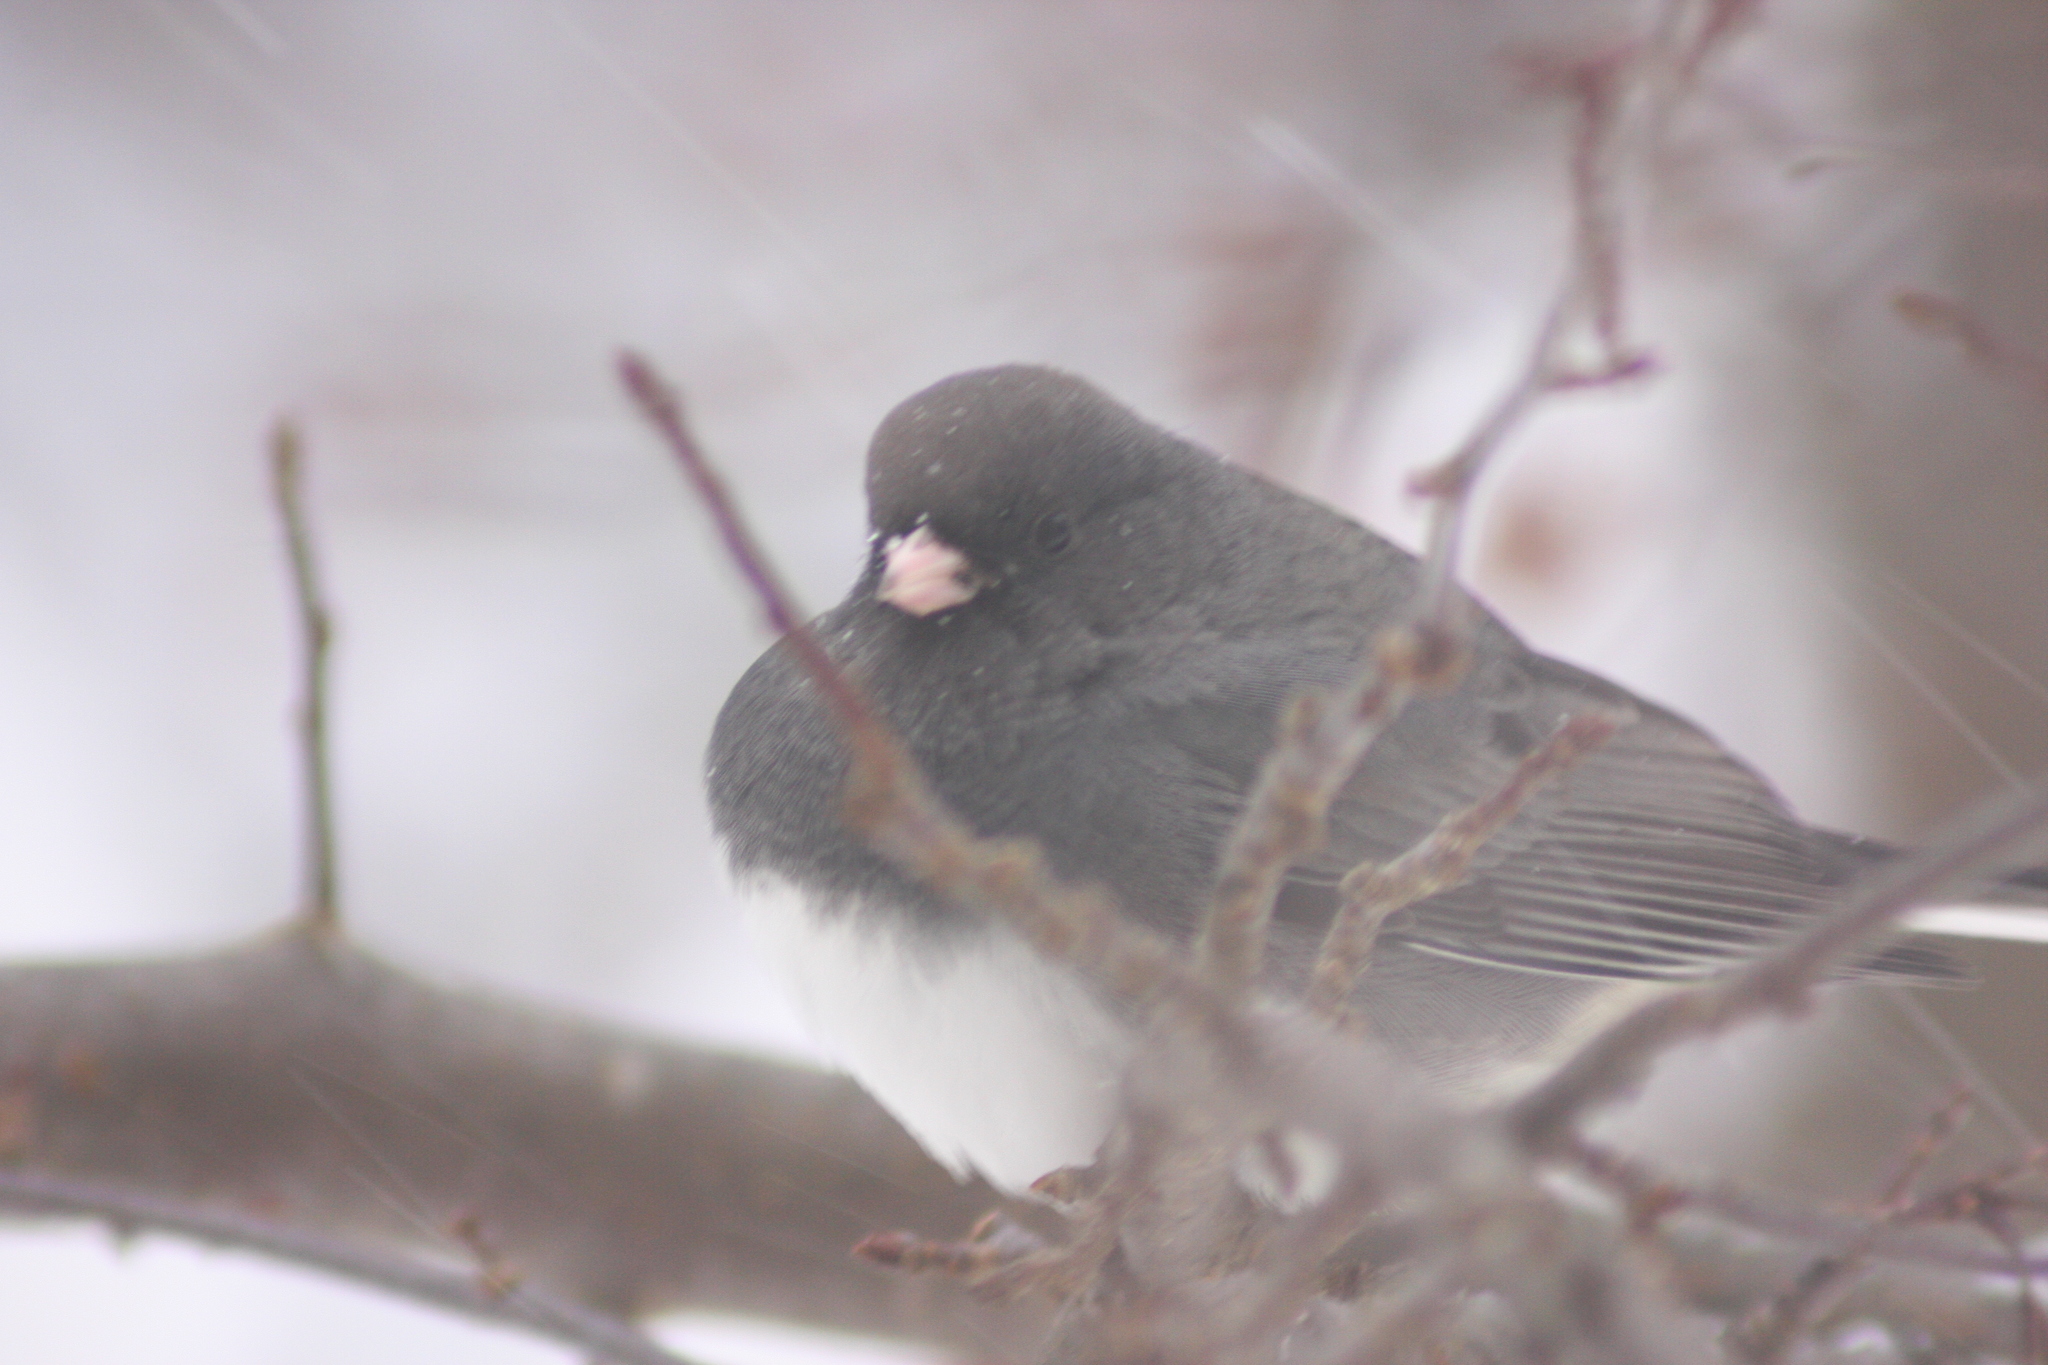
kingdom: Animalia
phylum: Chordata
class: Aves
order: Passeriformes
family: Passerellidae
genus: Junco
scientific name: Junco hyemalis
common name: Dark-eyed junco
